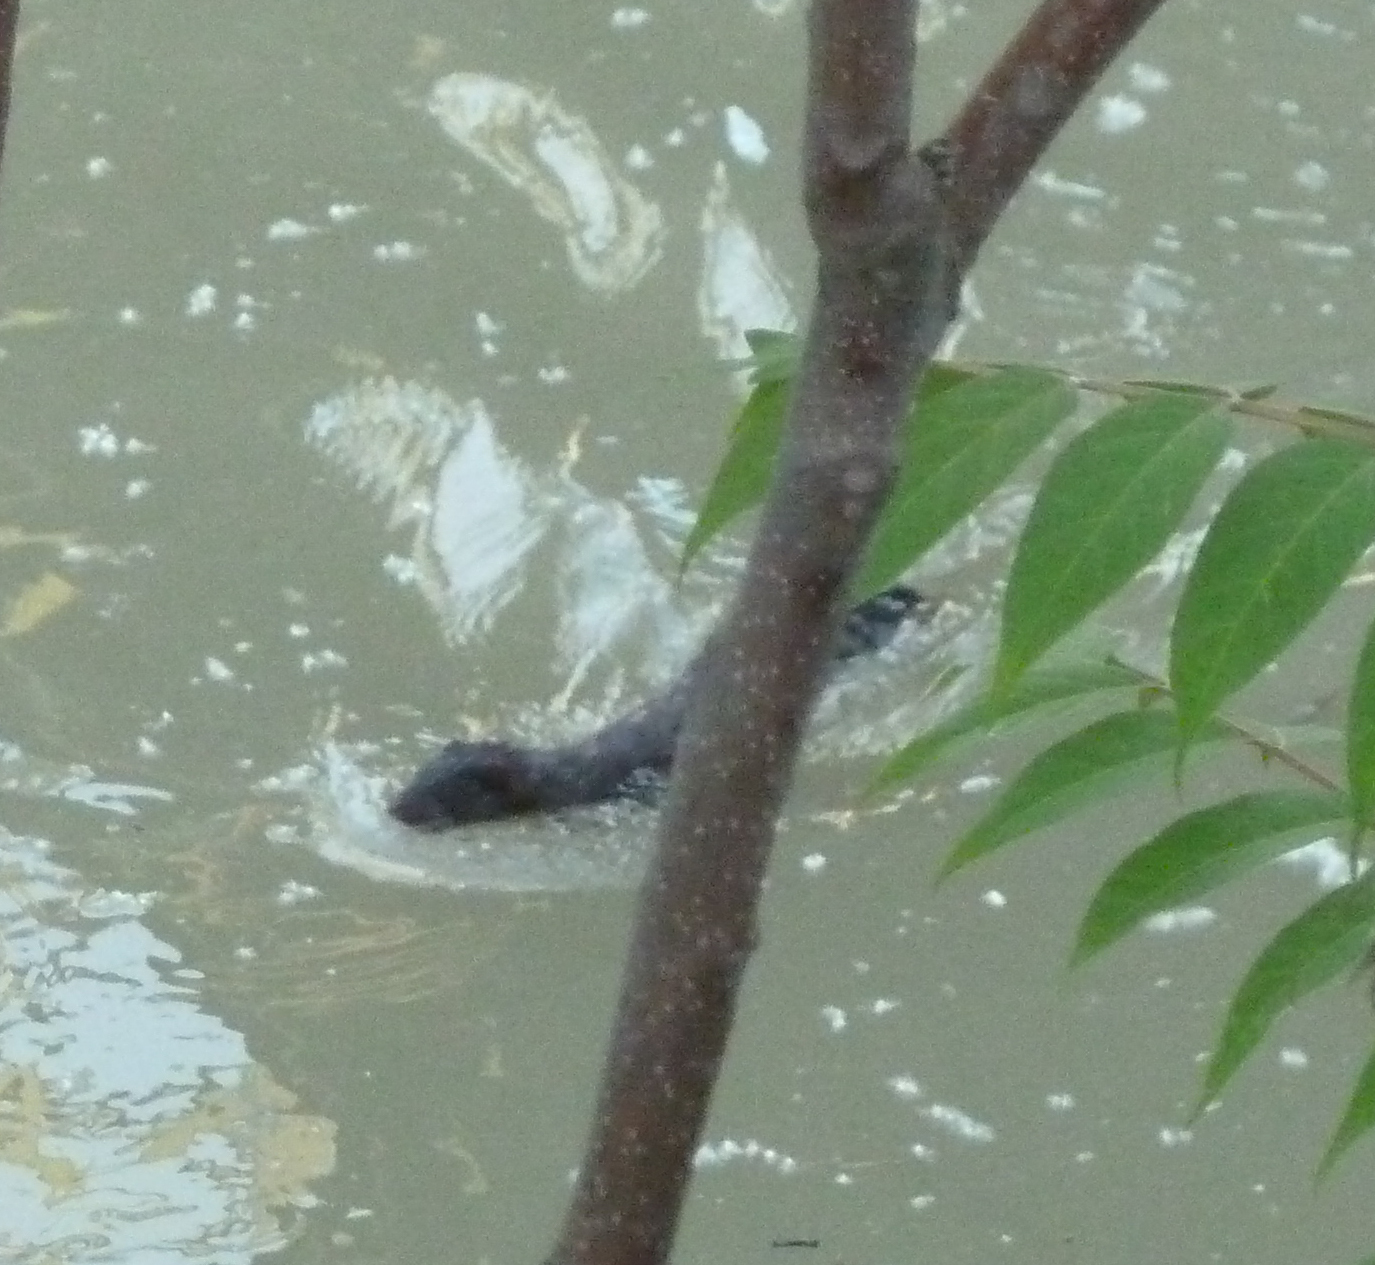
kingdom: Animalia
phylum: Chordata
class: Mammalia
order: Carnivora
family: Mustelidae
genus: Mustela
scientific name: Mustela
